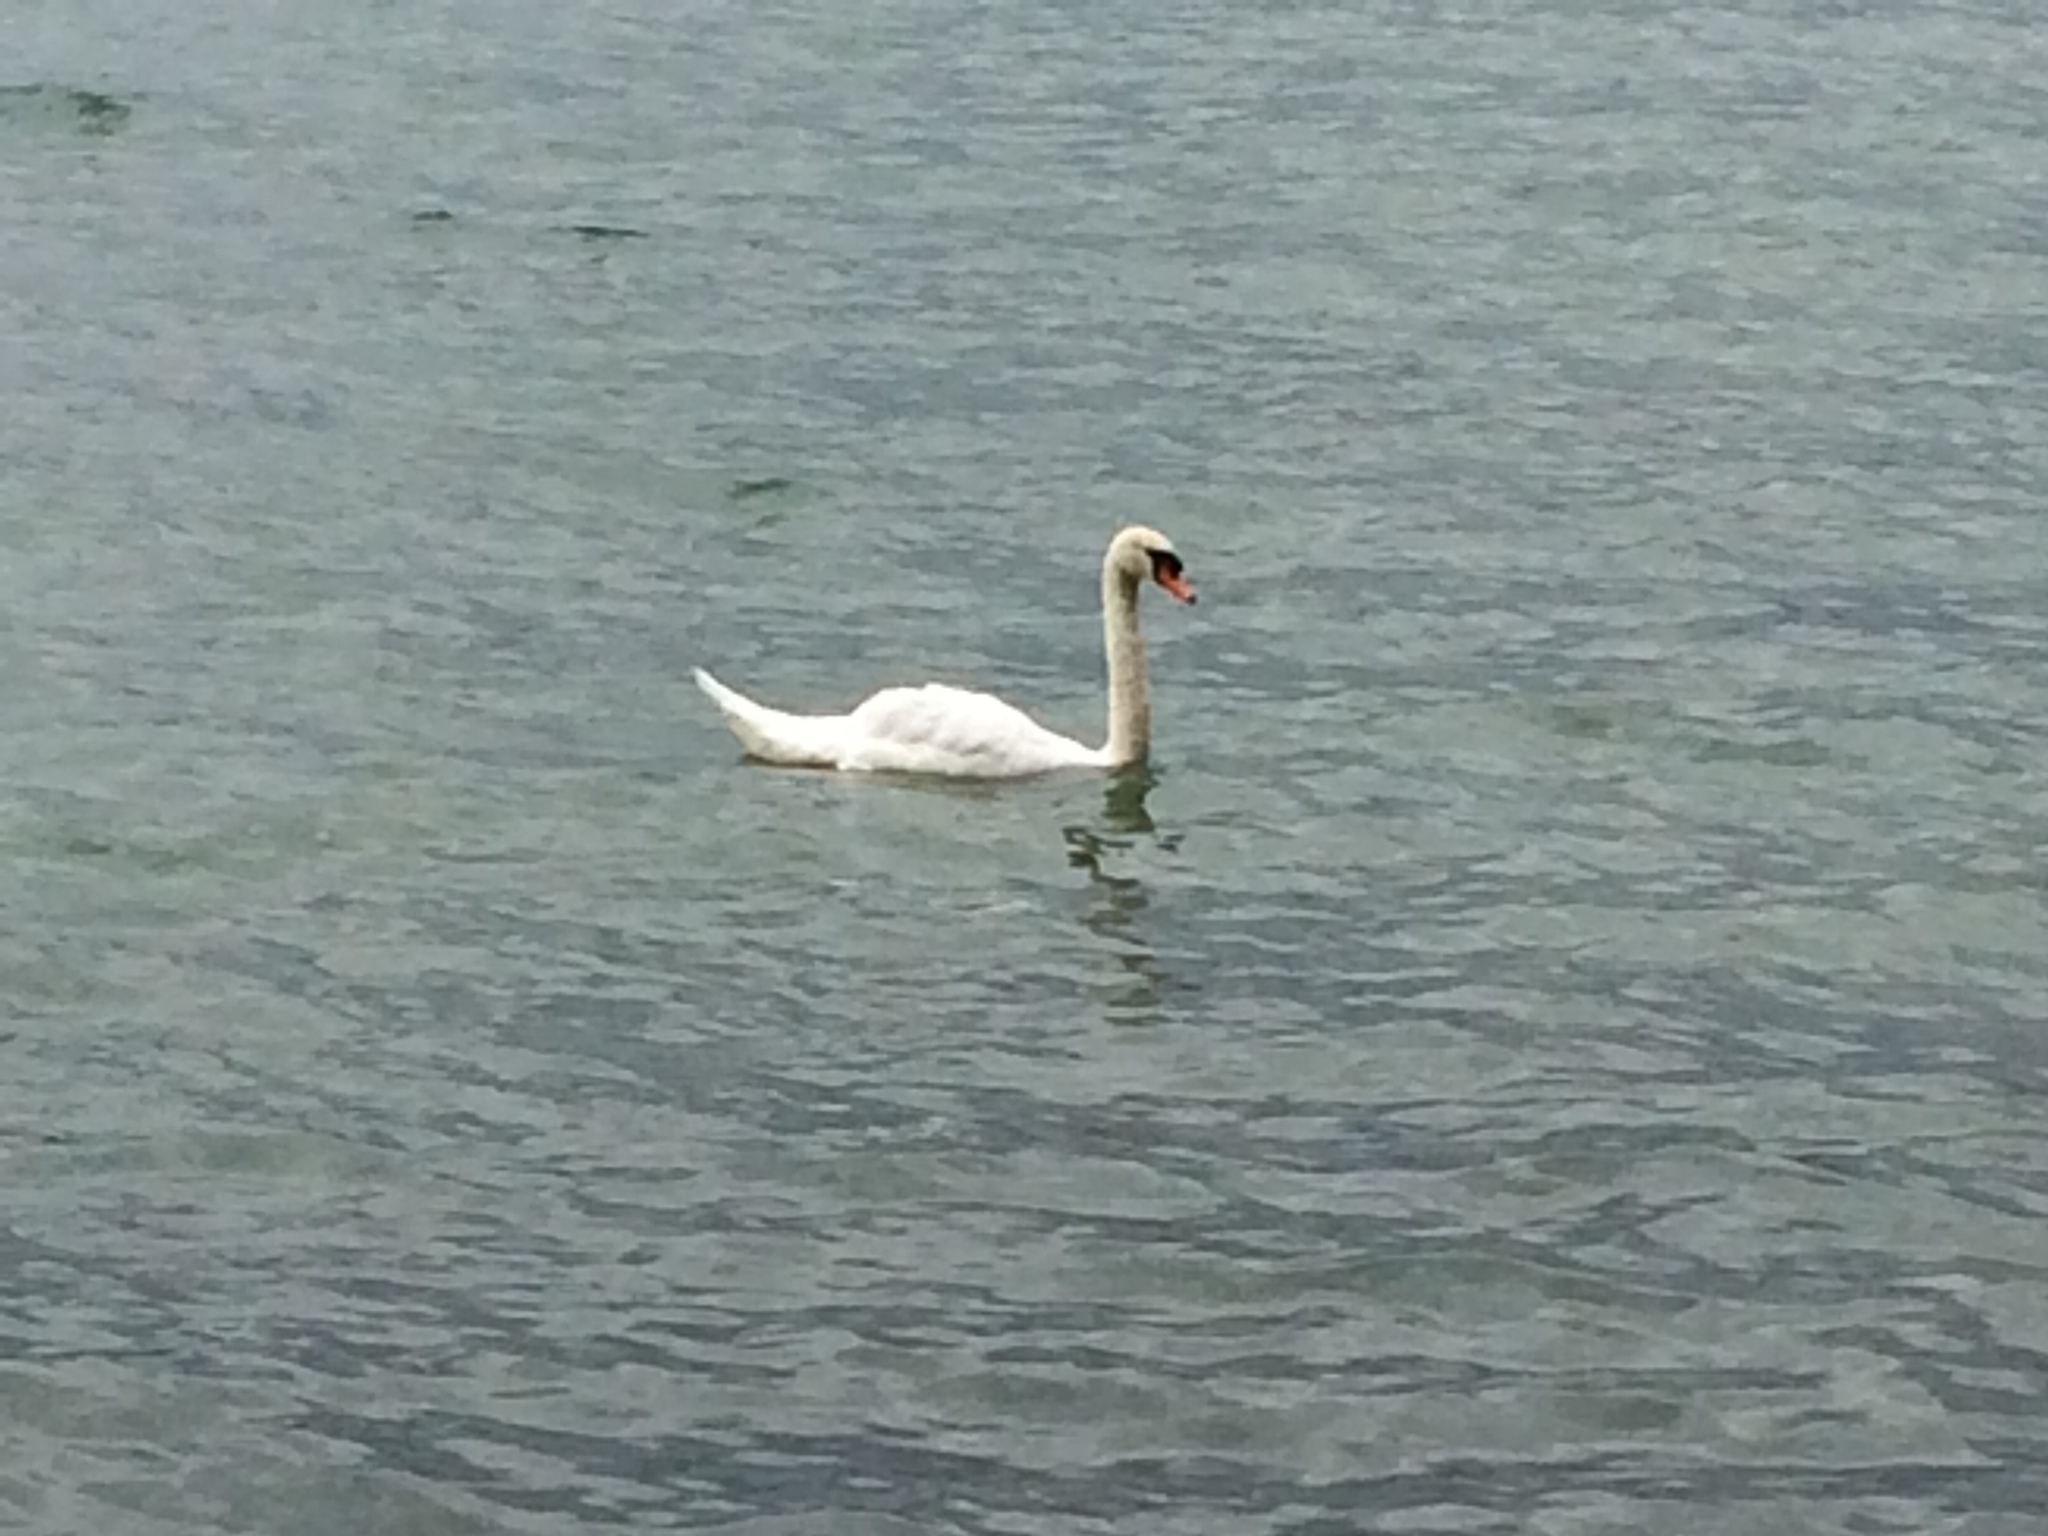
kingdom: Animalia
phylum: Chordata
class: Aves
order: Anseriformes
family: Anatidae
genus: Cygnus
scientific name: Cygnus olor
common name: Mute swan
